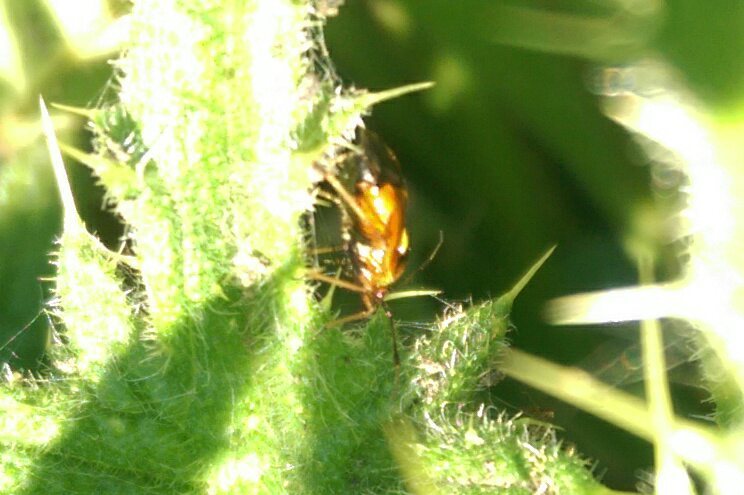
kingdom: Animalia
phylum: Arthropoda
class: Insecta
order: Hemiptera
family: Miridae
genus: Deraeocoris
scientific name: Deraeocoris ruber
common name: Plant bug
